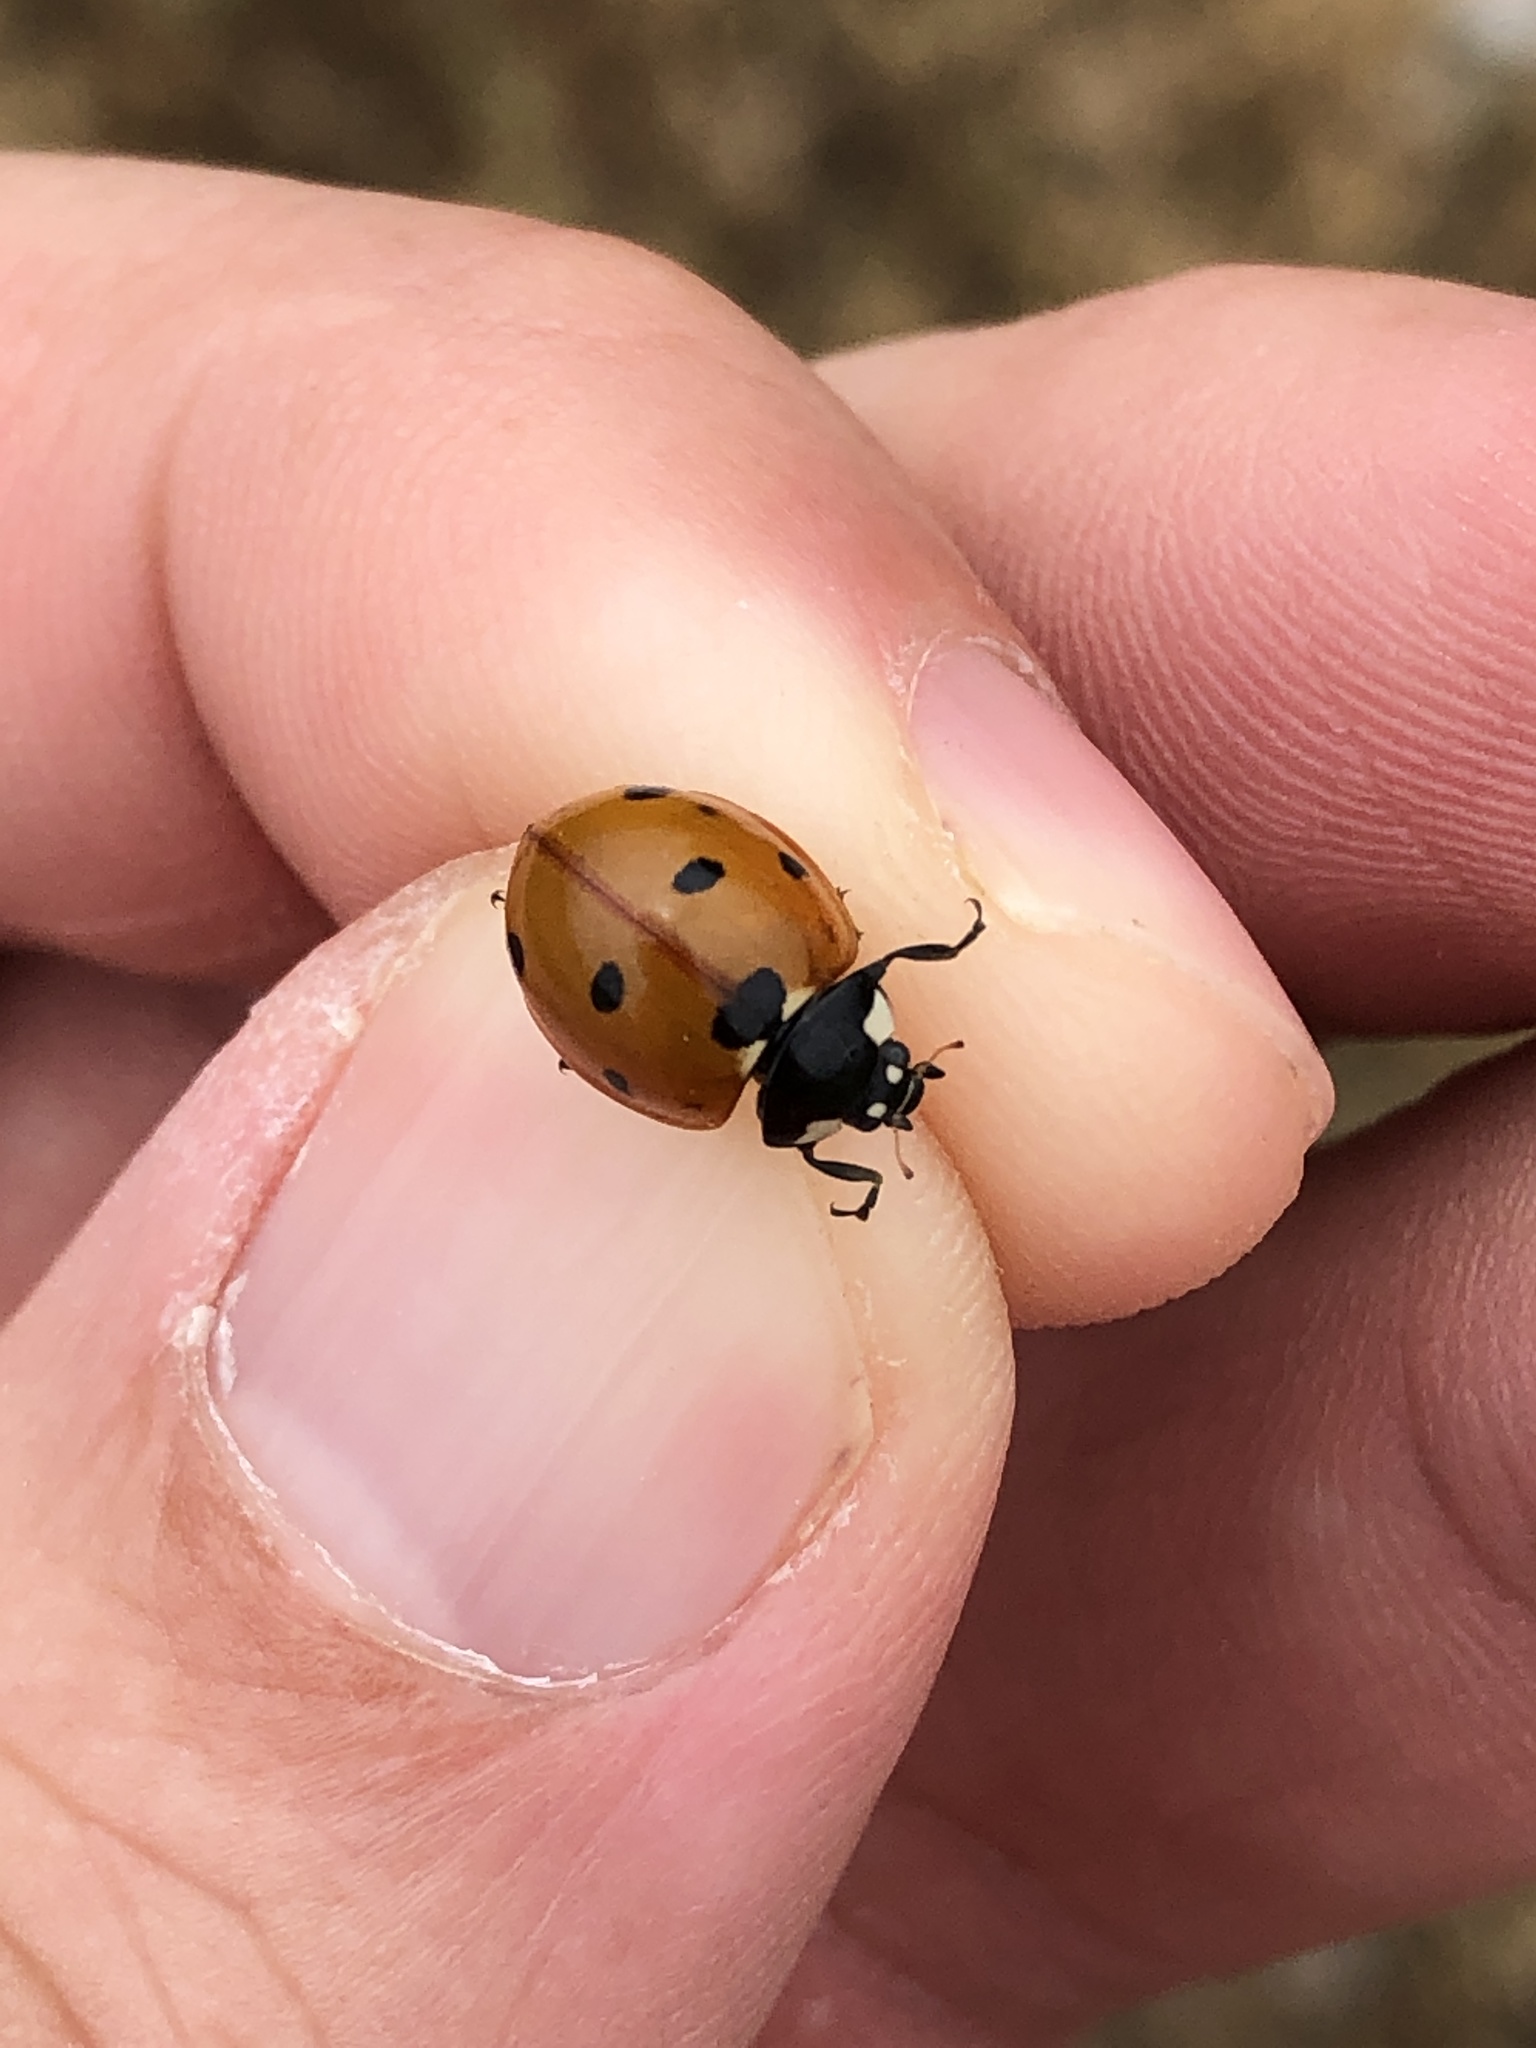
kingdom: Animalia
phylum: Arthropoda
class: Insecta
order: Coleoptera
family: Coccinellidae
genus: Coccinella
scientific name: Coccinella septempunctata
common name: Sevenspotted lady beetle
